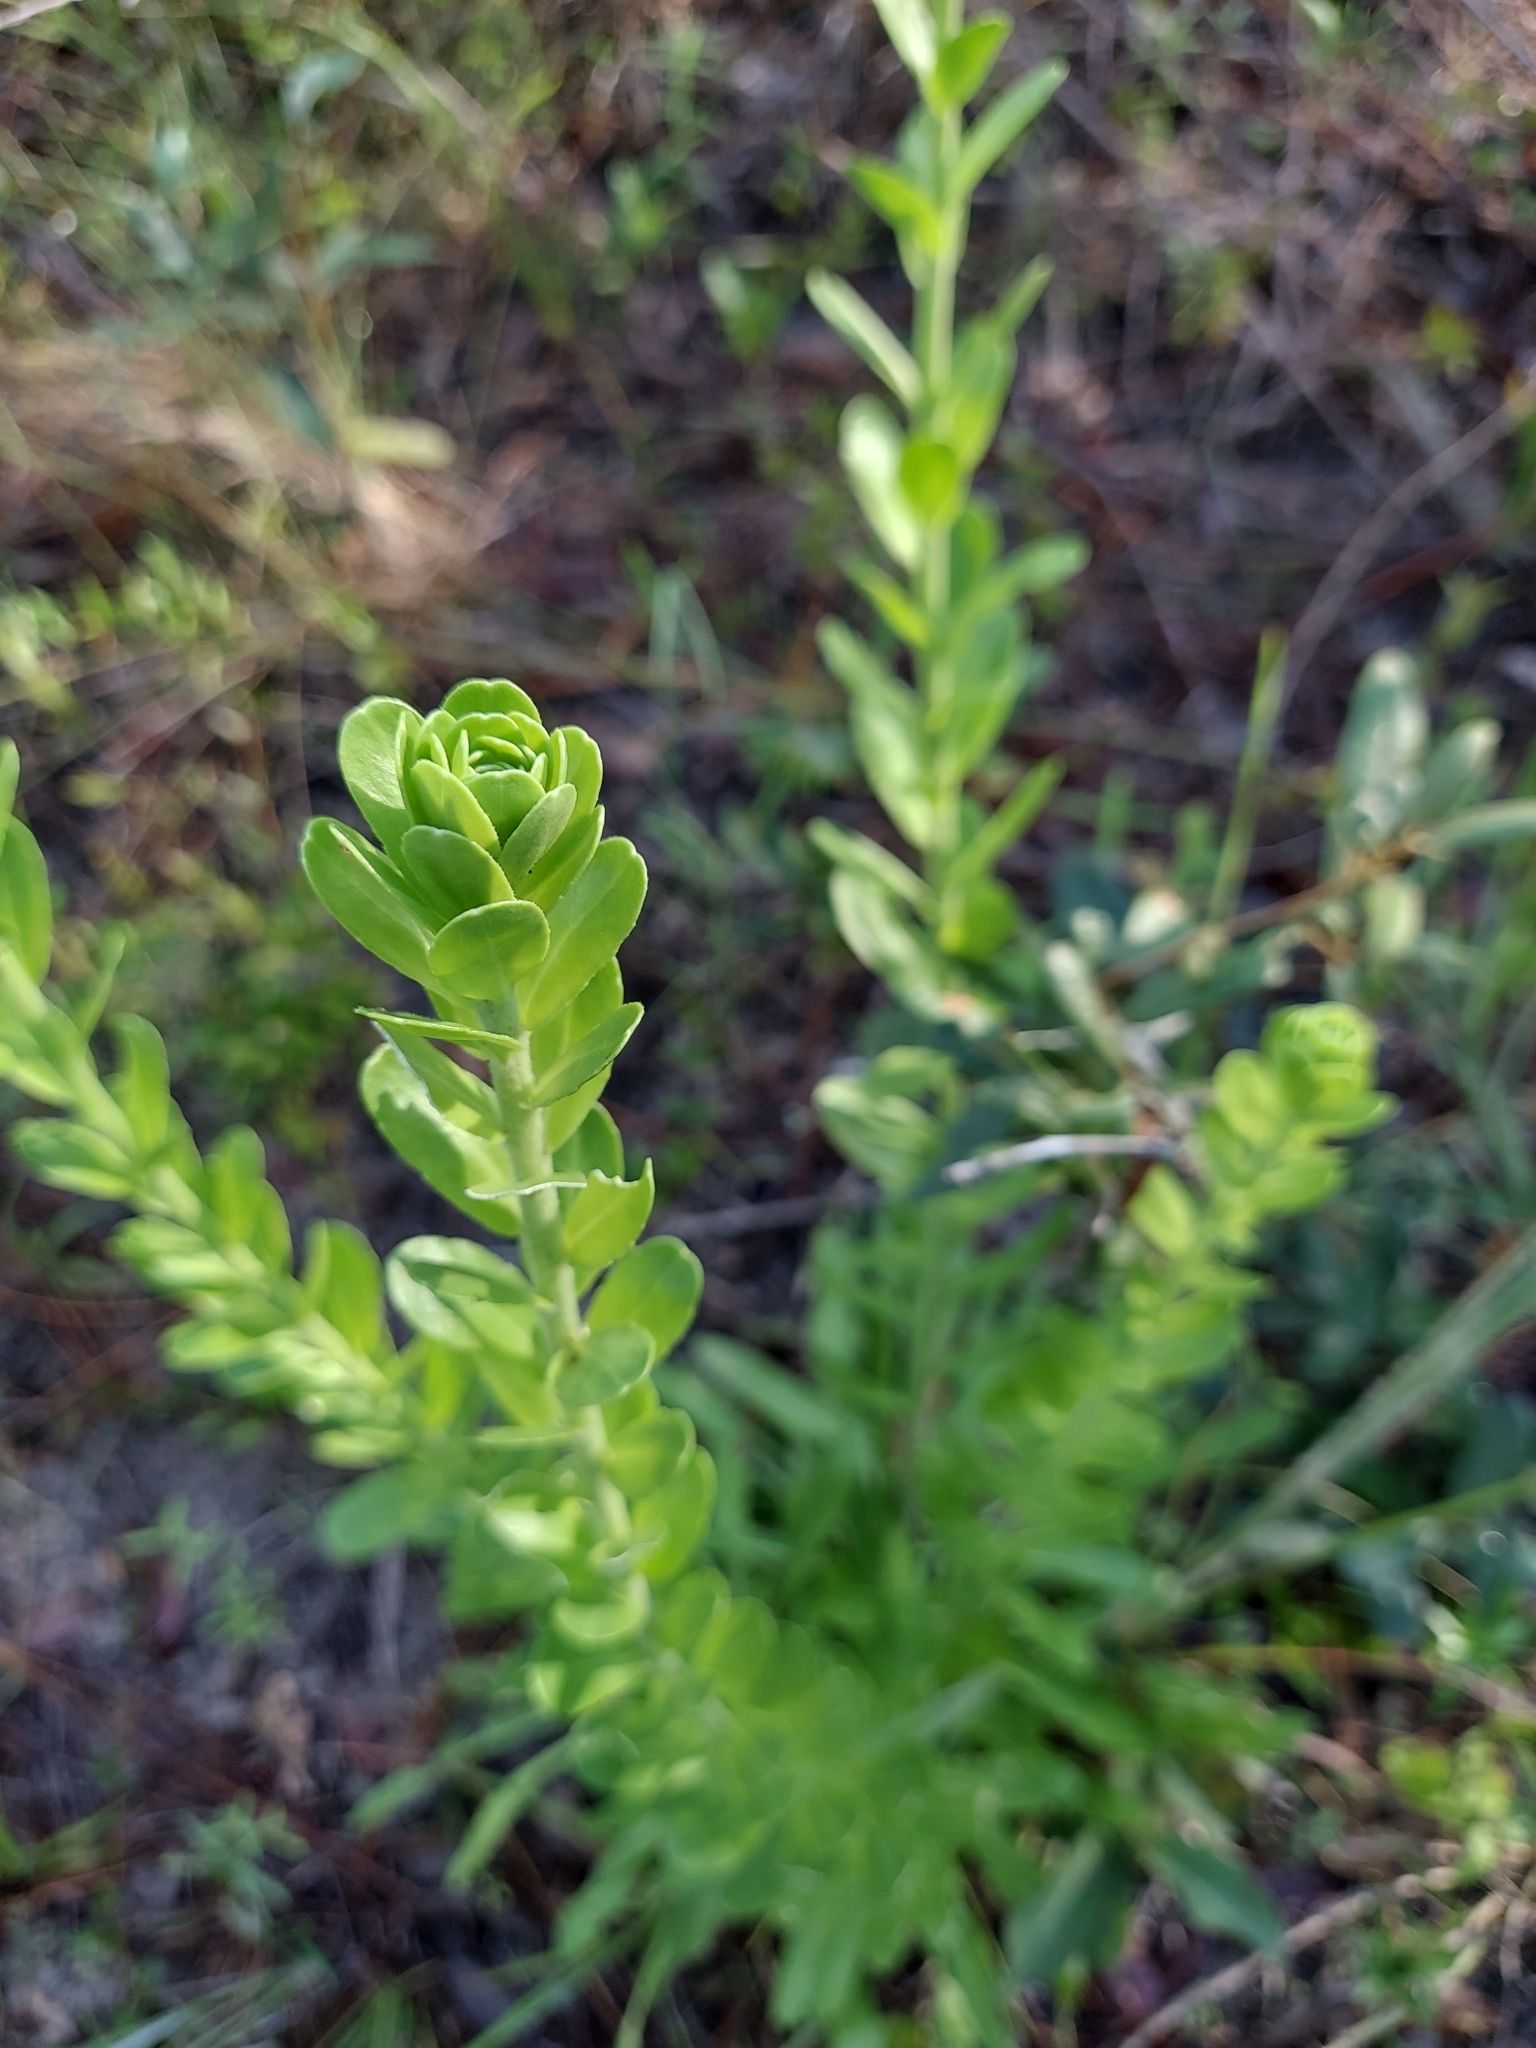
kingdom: Plantae
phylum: Tracheophyta
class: Magnoliopsida
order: Asterales
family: Asteraceae
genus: Carphephorus
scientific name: Carphephorus corymbosus
